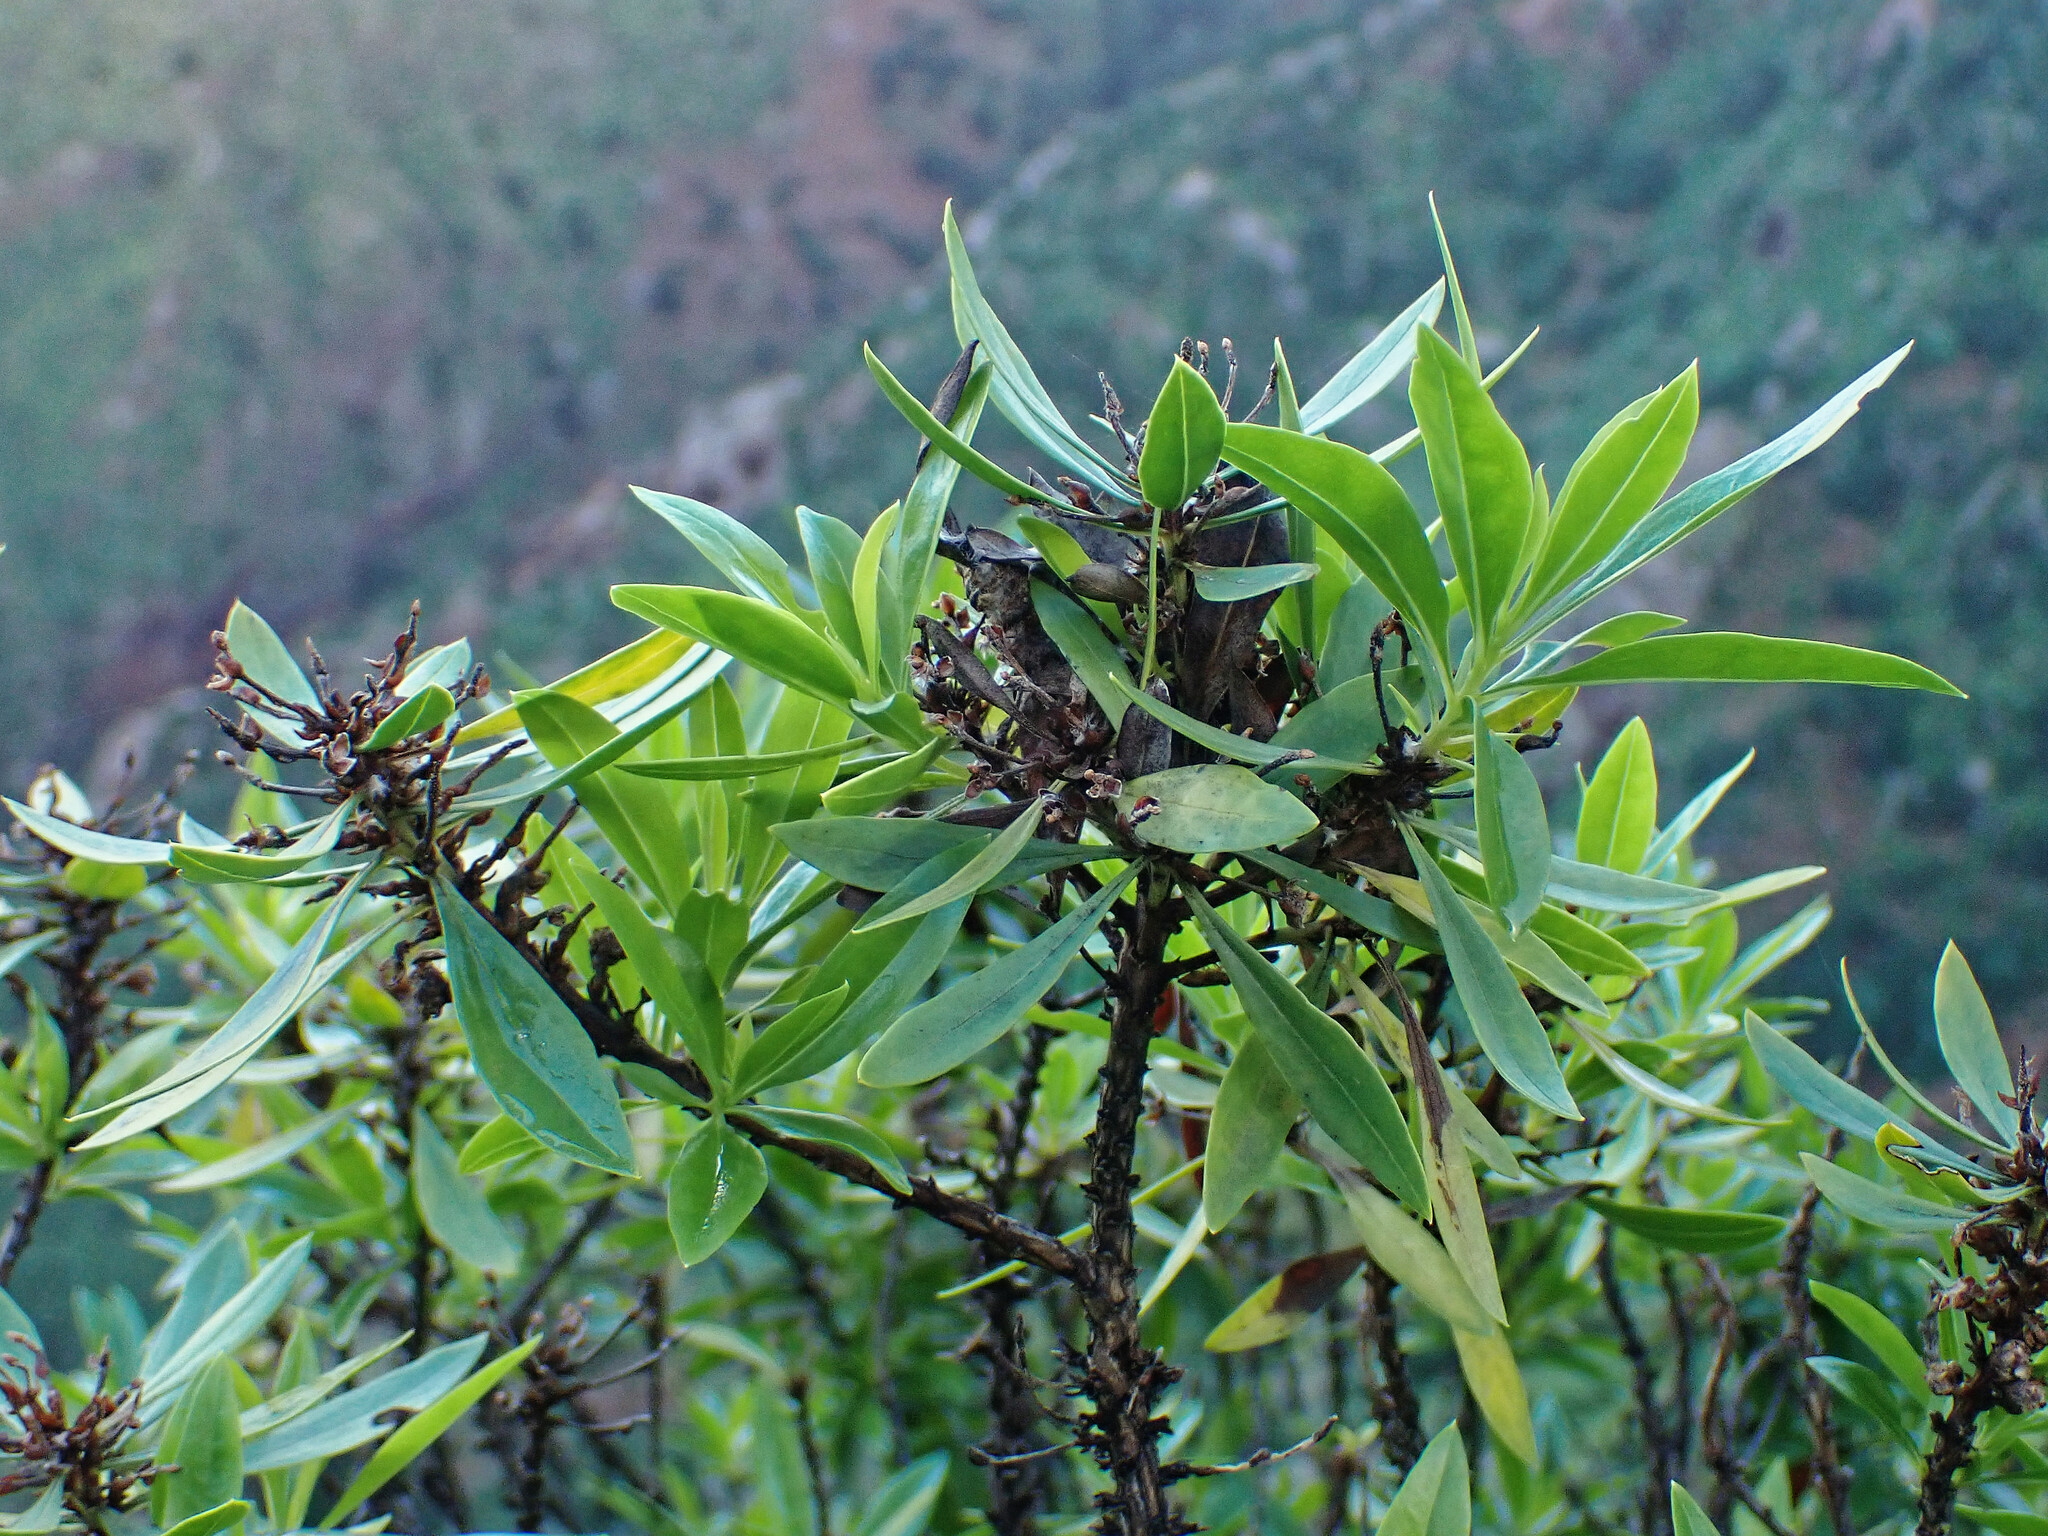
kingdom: Plantae
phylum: Tracheophyta
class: Magnoliopsida
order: Lamiales
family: Plantaginaceae
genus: Globularia
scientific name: Globularia salicina
